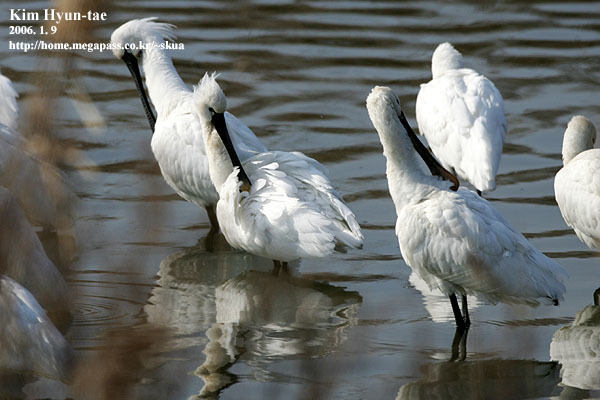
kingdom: Animalia
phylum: Chordata
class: Aves
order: Pelecaniformes
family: Threskiornithidae
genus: Platalea
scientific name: Platalea leucorodia
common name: Eurasian spoonbill
